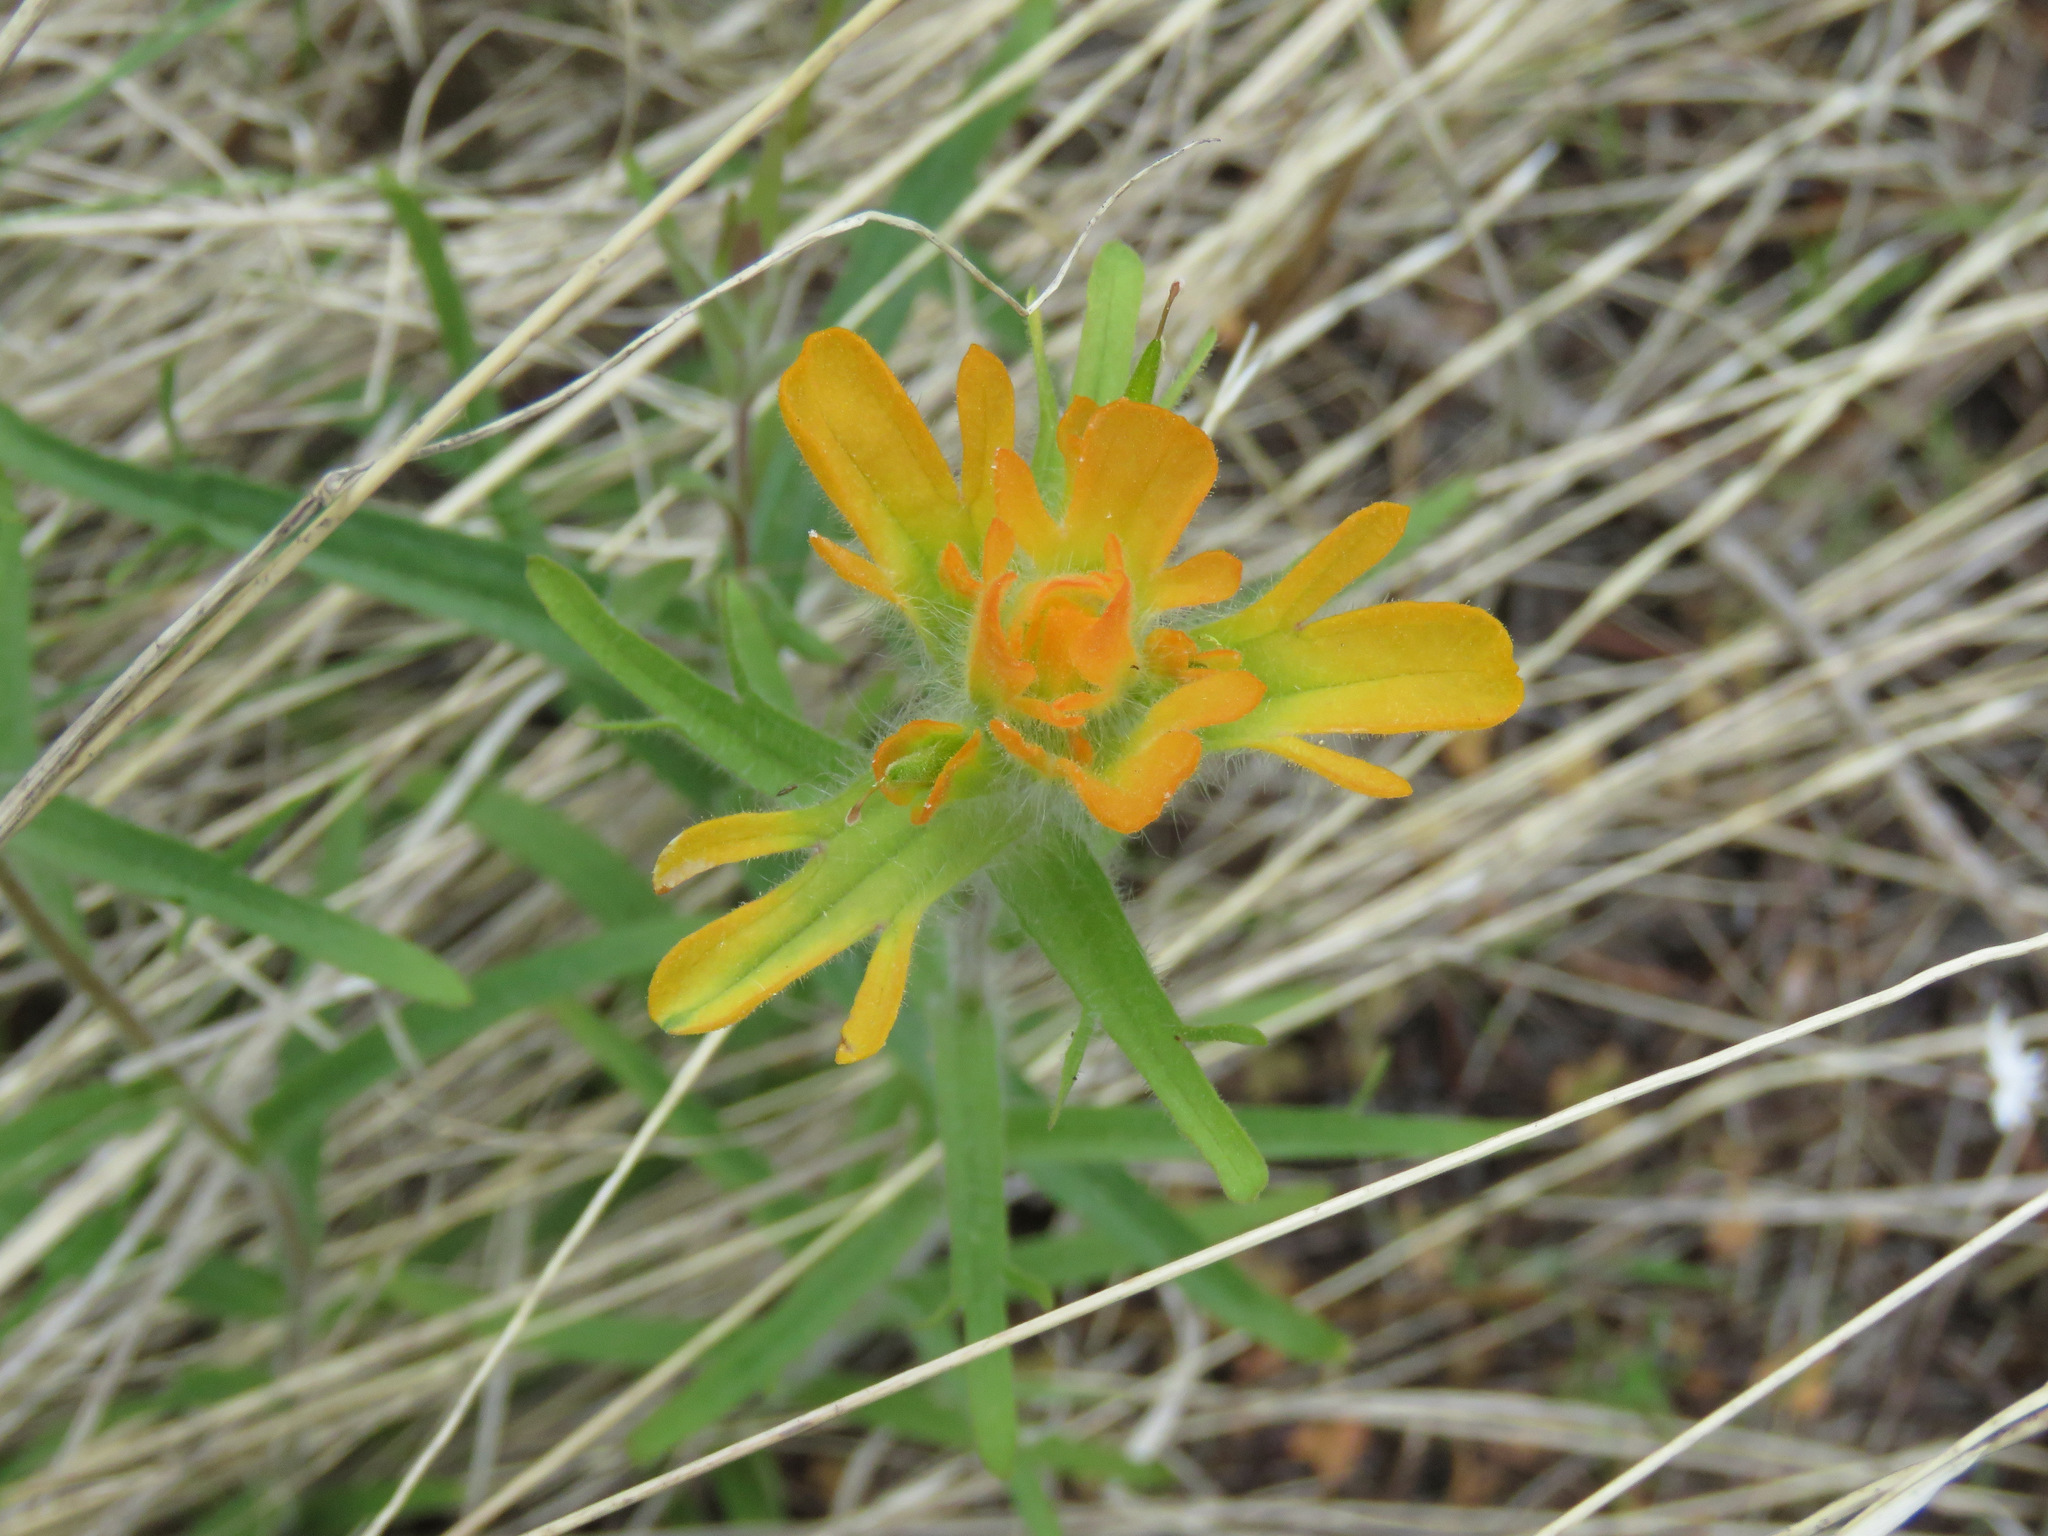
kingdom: Plantae
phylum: Tracheophyta
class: Magnoliopsida
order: Lamiales
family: Orobanchaceae
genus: Castilleja
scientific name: Castilleja hispida
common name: Bristly paintbrush
